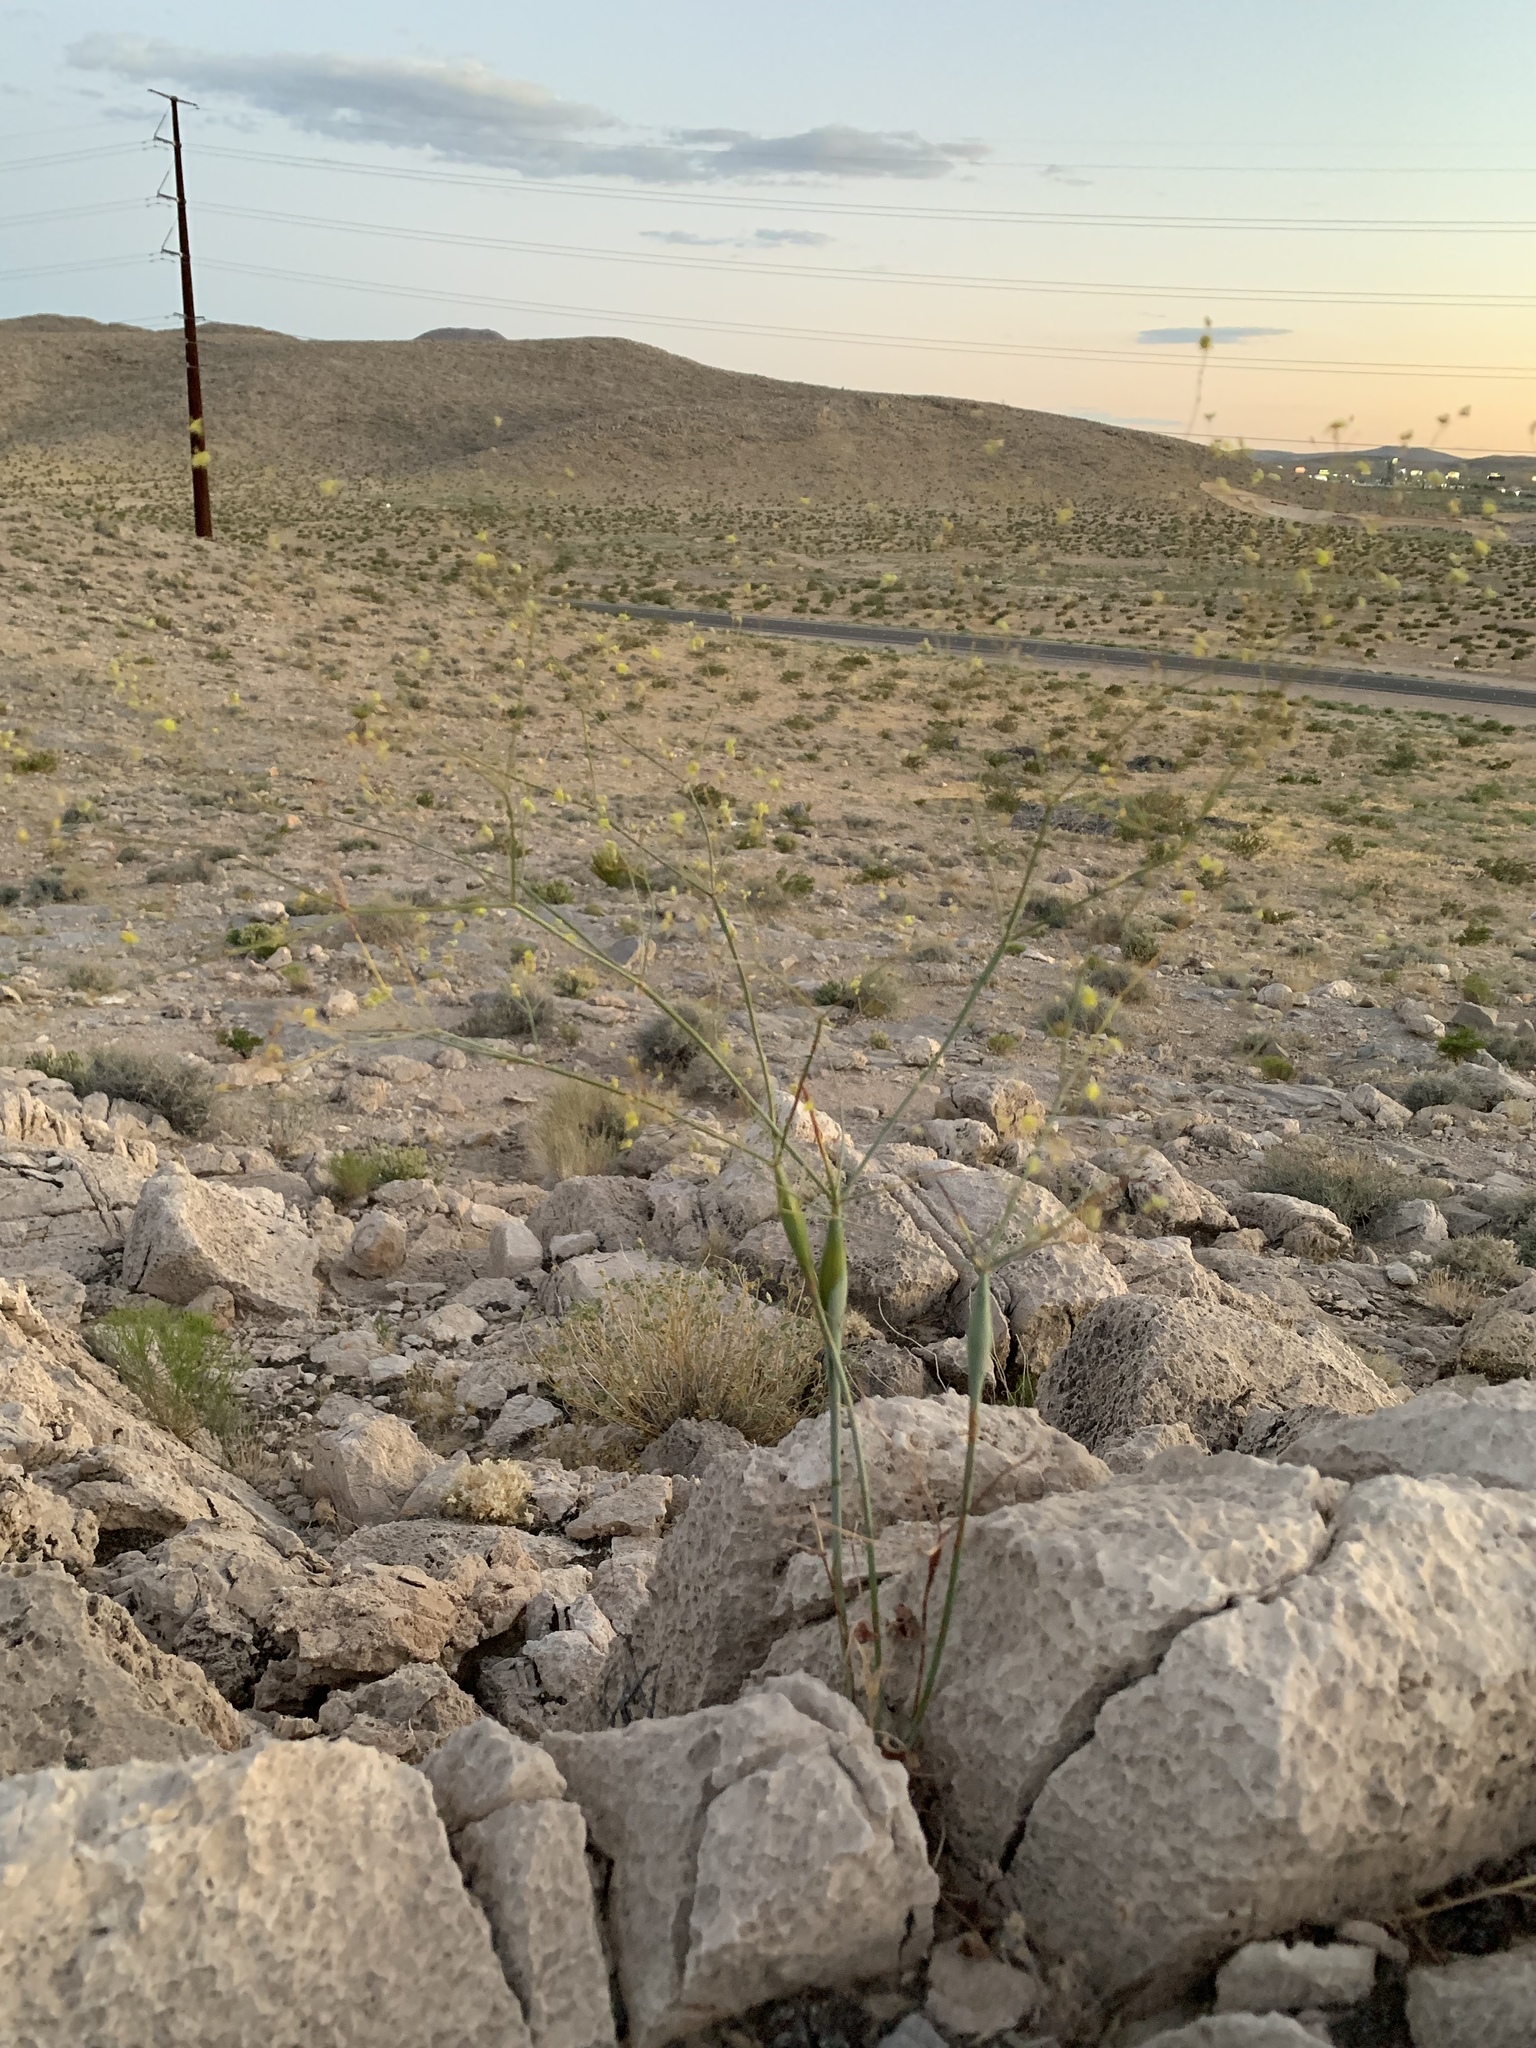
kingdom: Plantae
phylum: Tracheophyta
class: Magnoliopsida
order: Caryophyllales
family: Polygonaceae
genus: Eriogonum
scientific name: Eriogonum inflatum
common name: Desert trumpet
